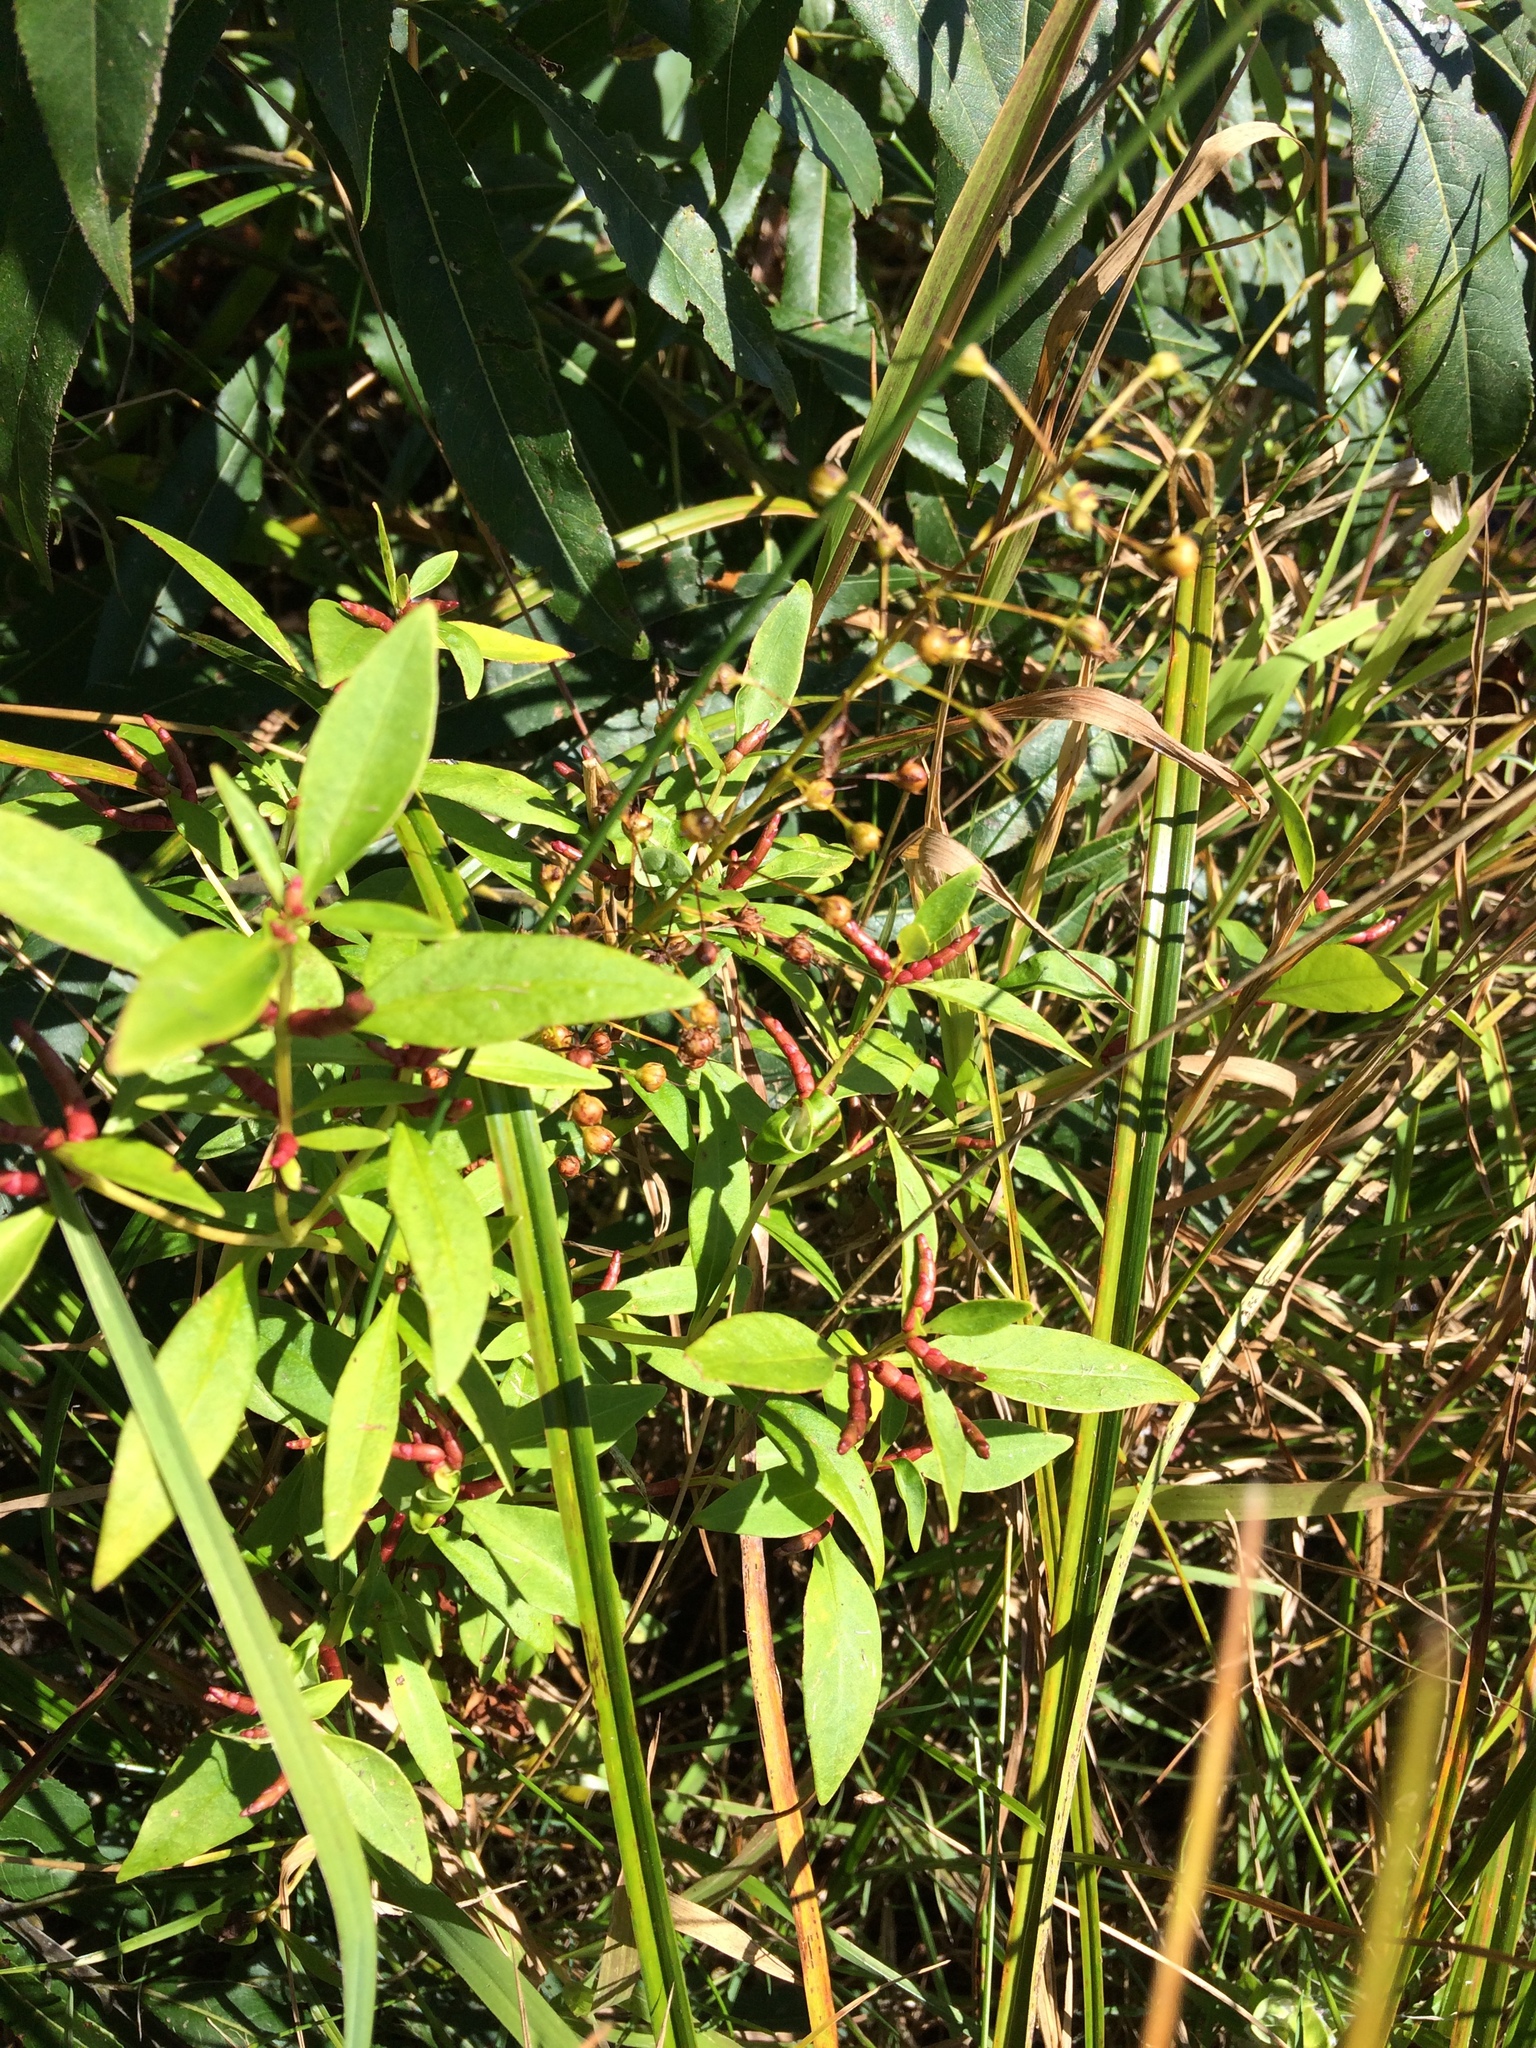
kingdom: Plantae
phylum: Tracheophyta
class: Magnoliopsida
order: Ericales
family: Primulaceae
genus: Lysimachia
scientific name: Lysimachia terrestris
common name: Lake loosestrife
